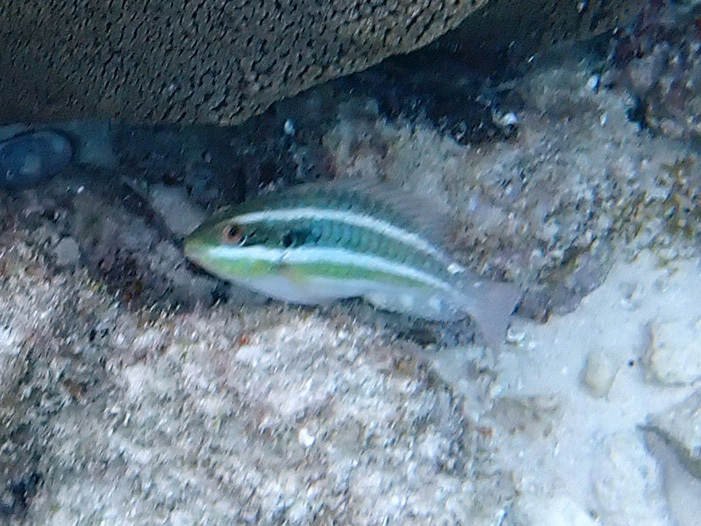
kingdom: Animalia
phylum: Chordata
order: Perciformes
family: Scaridae
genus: Scarus
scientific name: Scarus iseri
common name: Striped parrotfish
